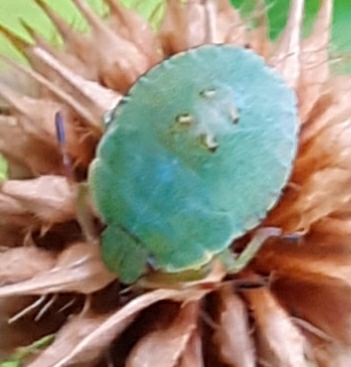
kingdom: Animalia
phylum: Arthropoda
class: Insecta
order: Hemiptera
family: Pentatomidae
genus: Palomena
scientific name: Palomena prasina
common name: Green shieldbug
